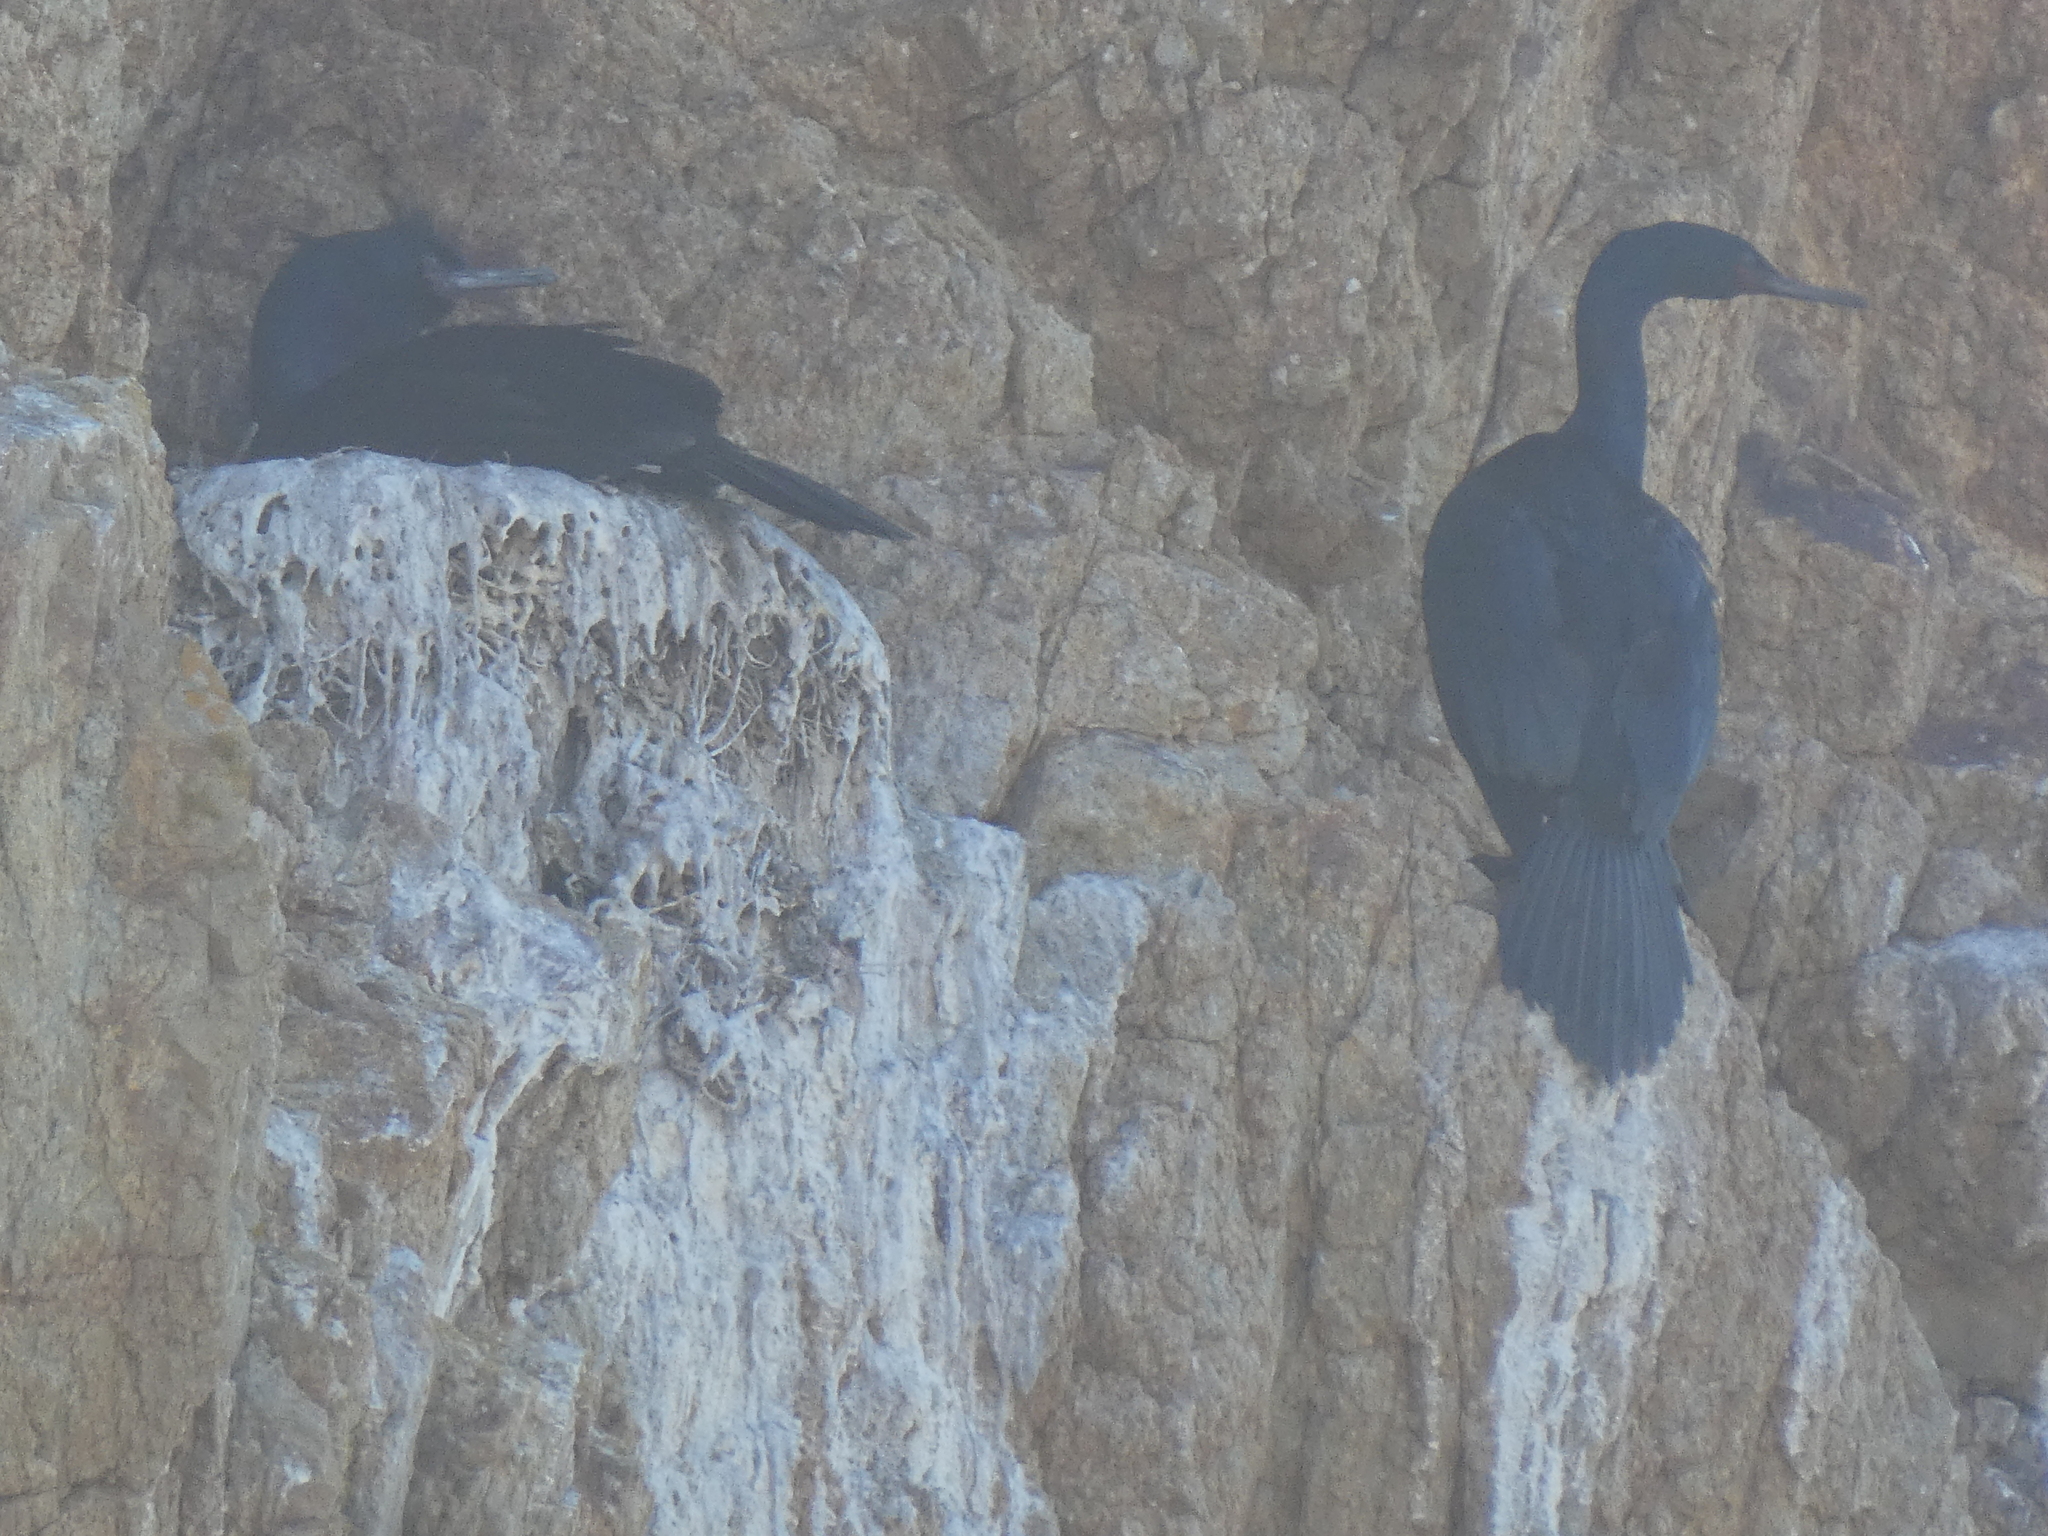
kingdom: Animalia
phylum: Chordata
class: Aves
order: Suliformes
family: Phalacrocoracidae
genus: Phalacrocorax
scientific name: Phalacrocorax pelagicus
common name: Pelagic cormorant
